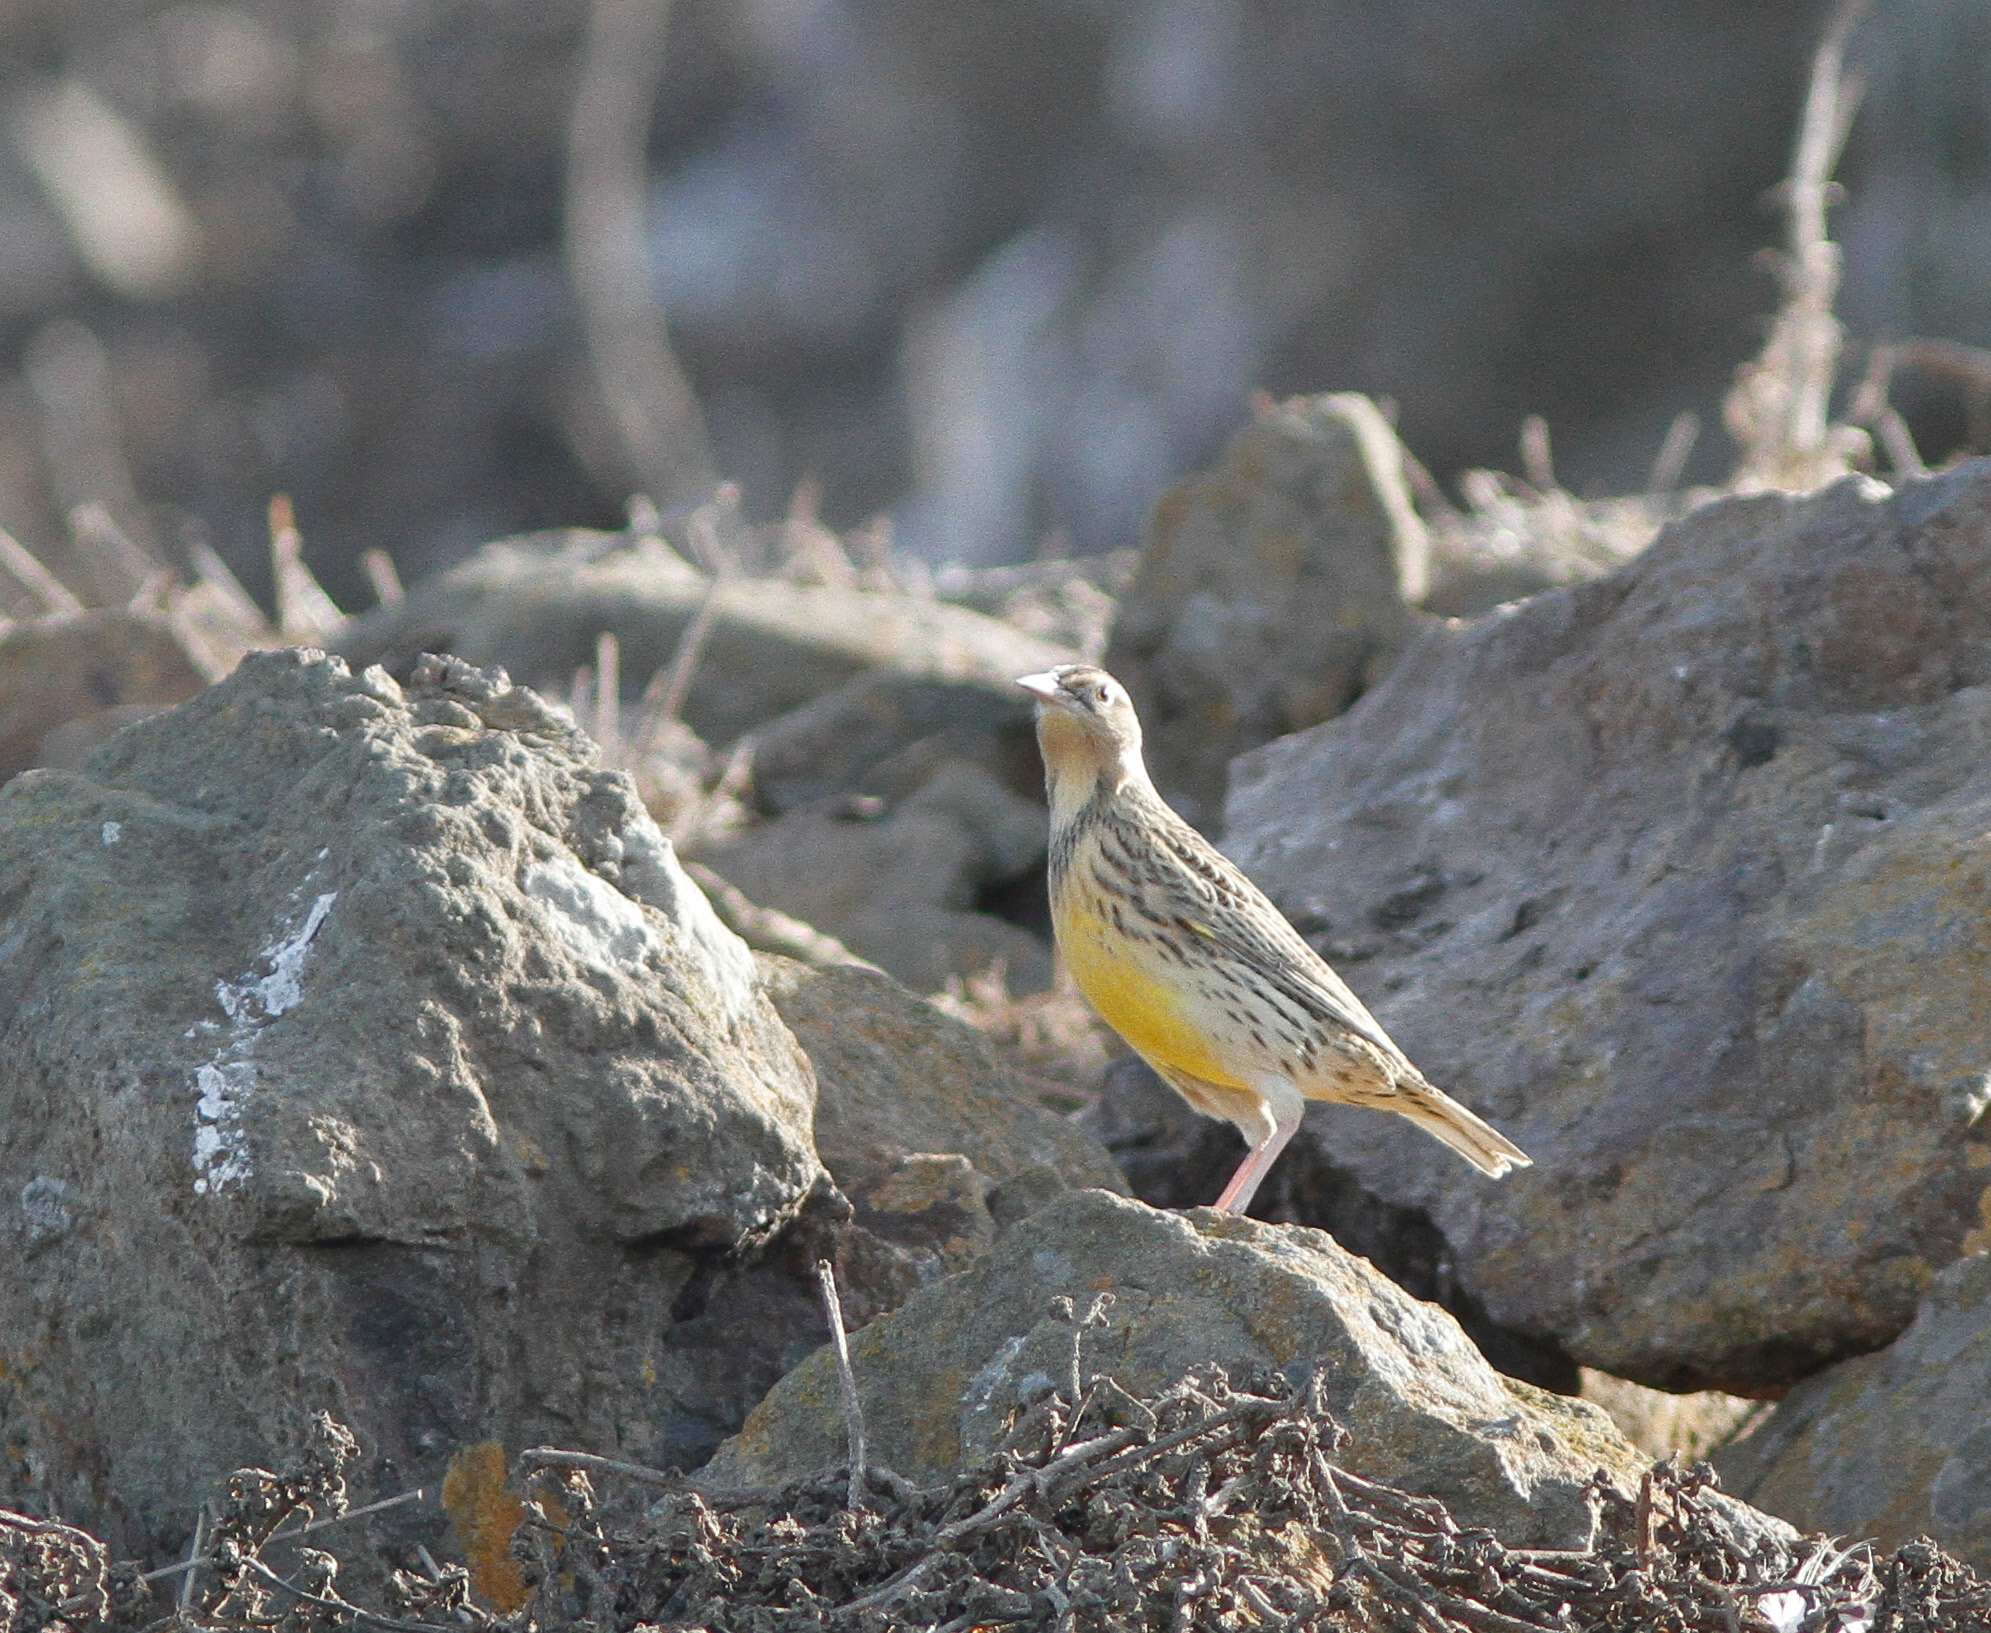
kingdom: Animalia
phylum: Chordata
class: Aves
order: Passeriformes
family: Icteridae
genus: Sturnella
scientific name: Sturnella neglecta
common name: Western meadowlark
